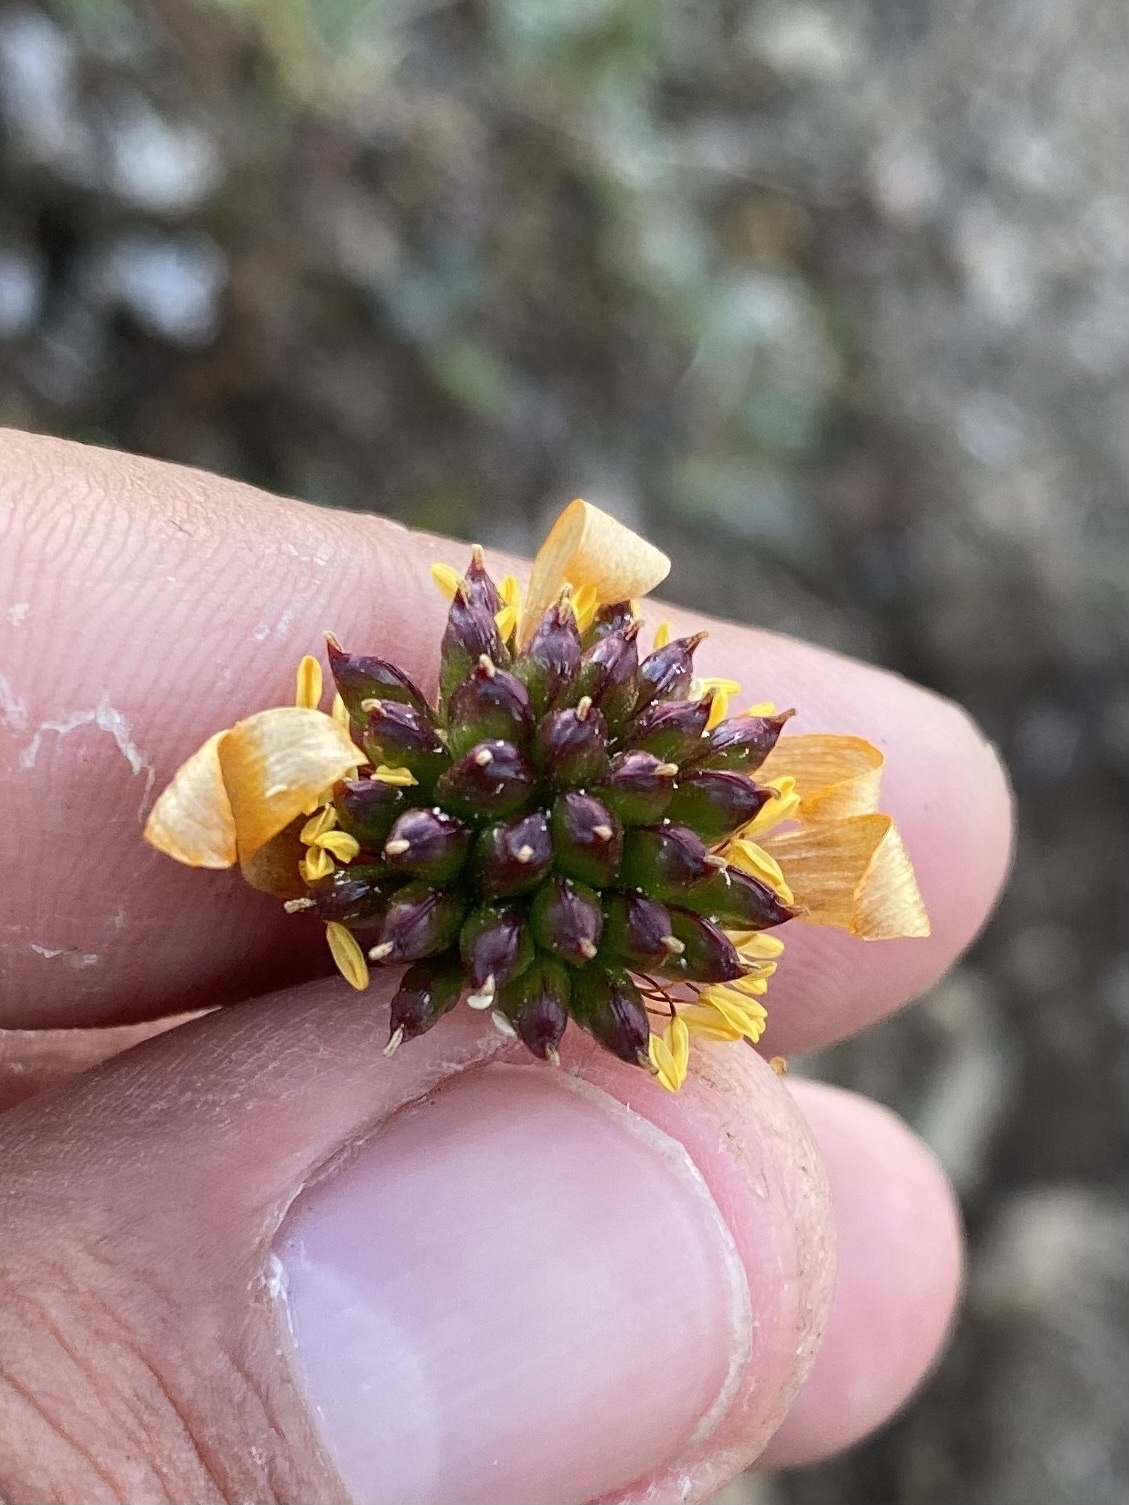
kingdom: Plantae
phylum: Tracheophyta
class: Magnoliopsida
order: Ranunculales
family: Ranunculaceae
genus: Trollius
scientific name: Trollius sibiricus
